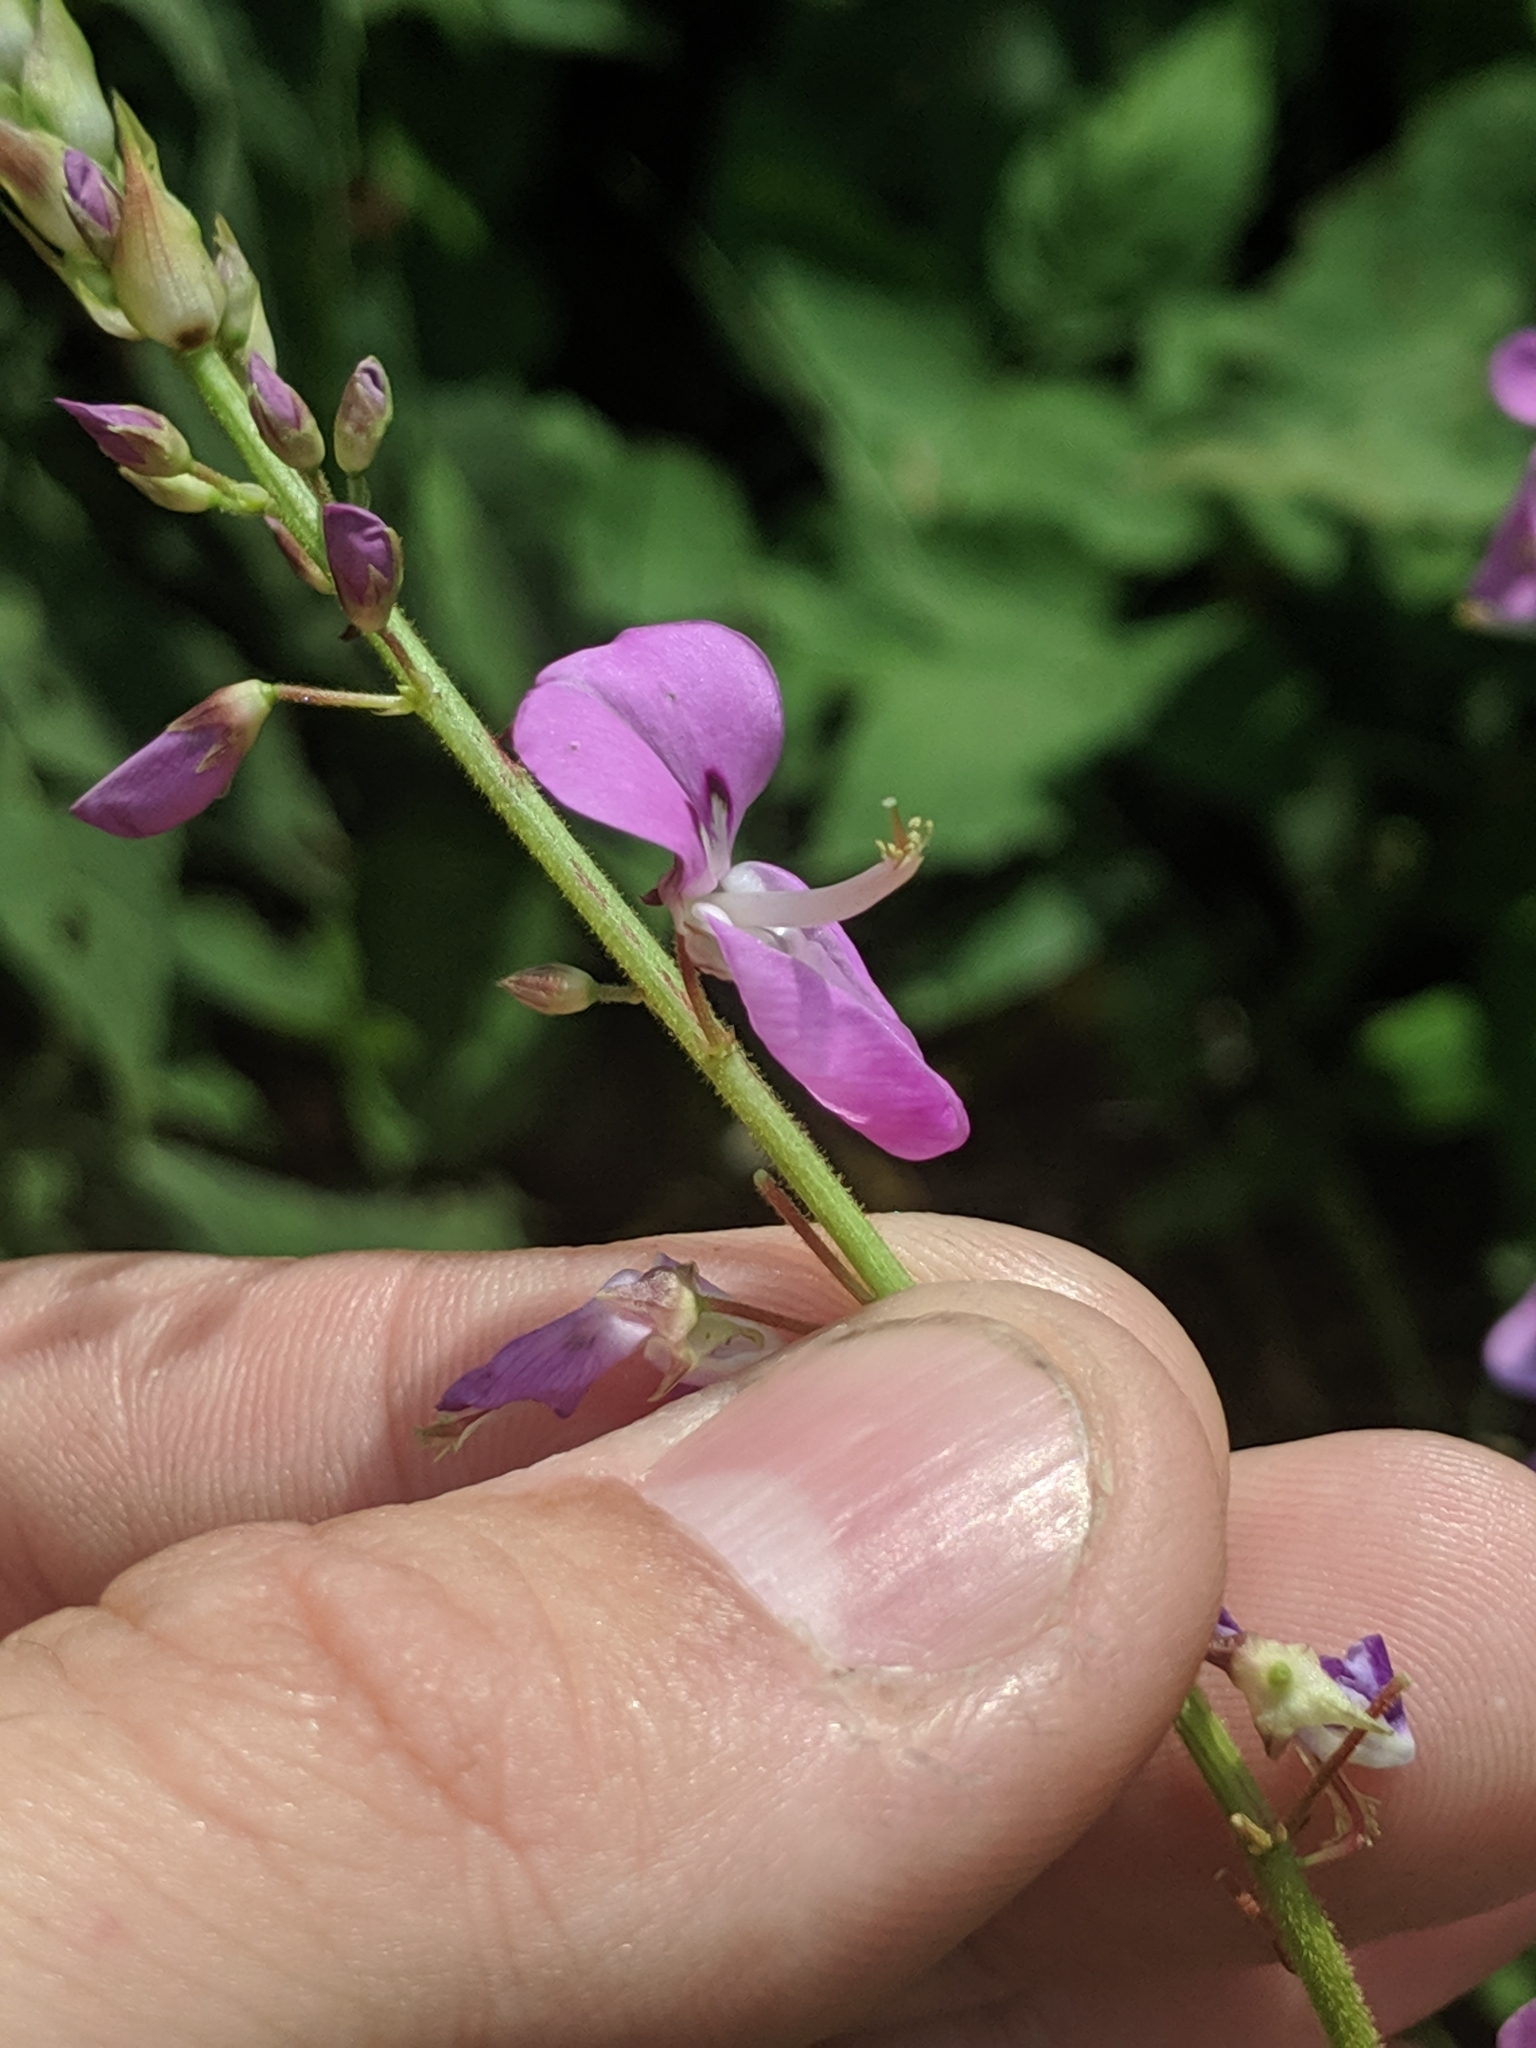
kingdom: Plantae
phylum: Tracheophyta
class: Magnoliopsida
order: Fabales
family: Fabaceae
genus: Desmodium
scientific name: Desmodium
